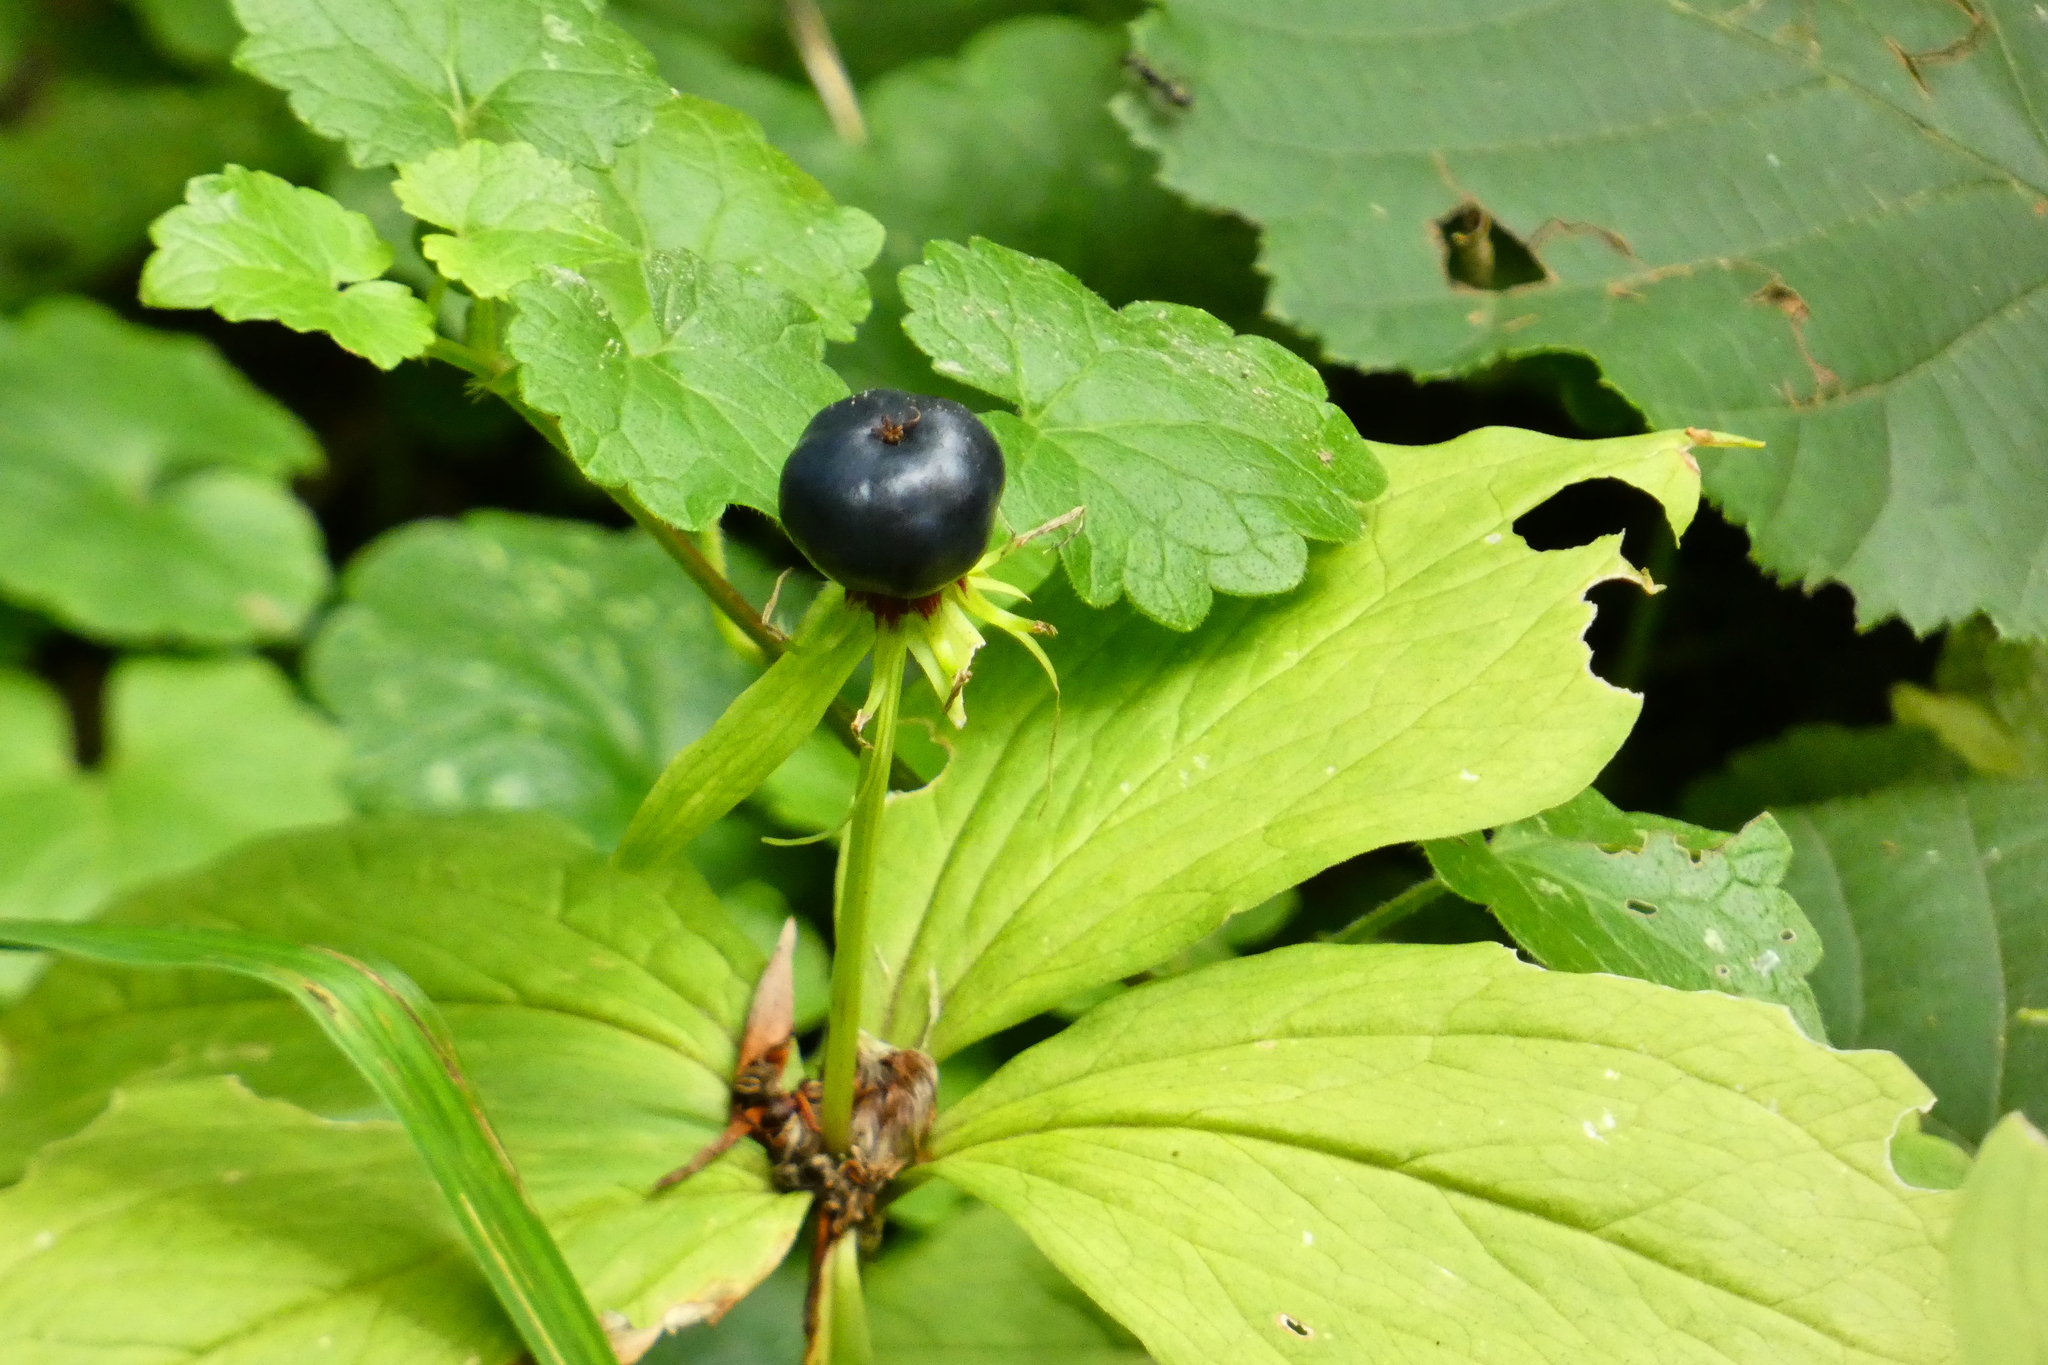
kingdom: Plantae
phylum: Tracheophyta
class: Liliopsida
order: Liliales
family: Melanthiaceae
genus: Paris
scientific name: Paris quadrifolia
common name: Herb-paris
